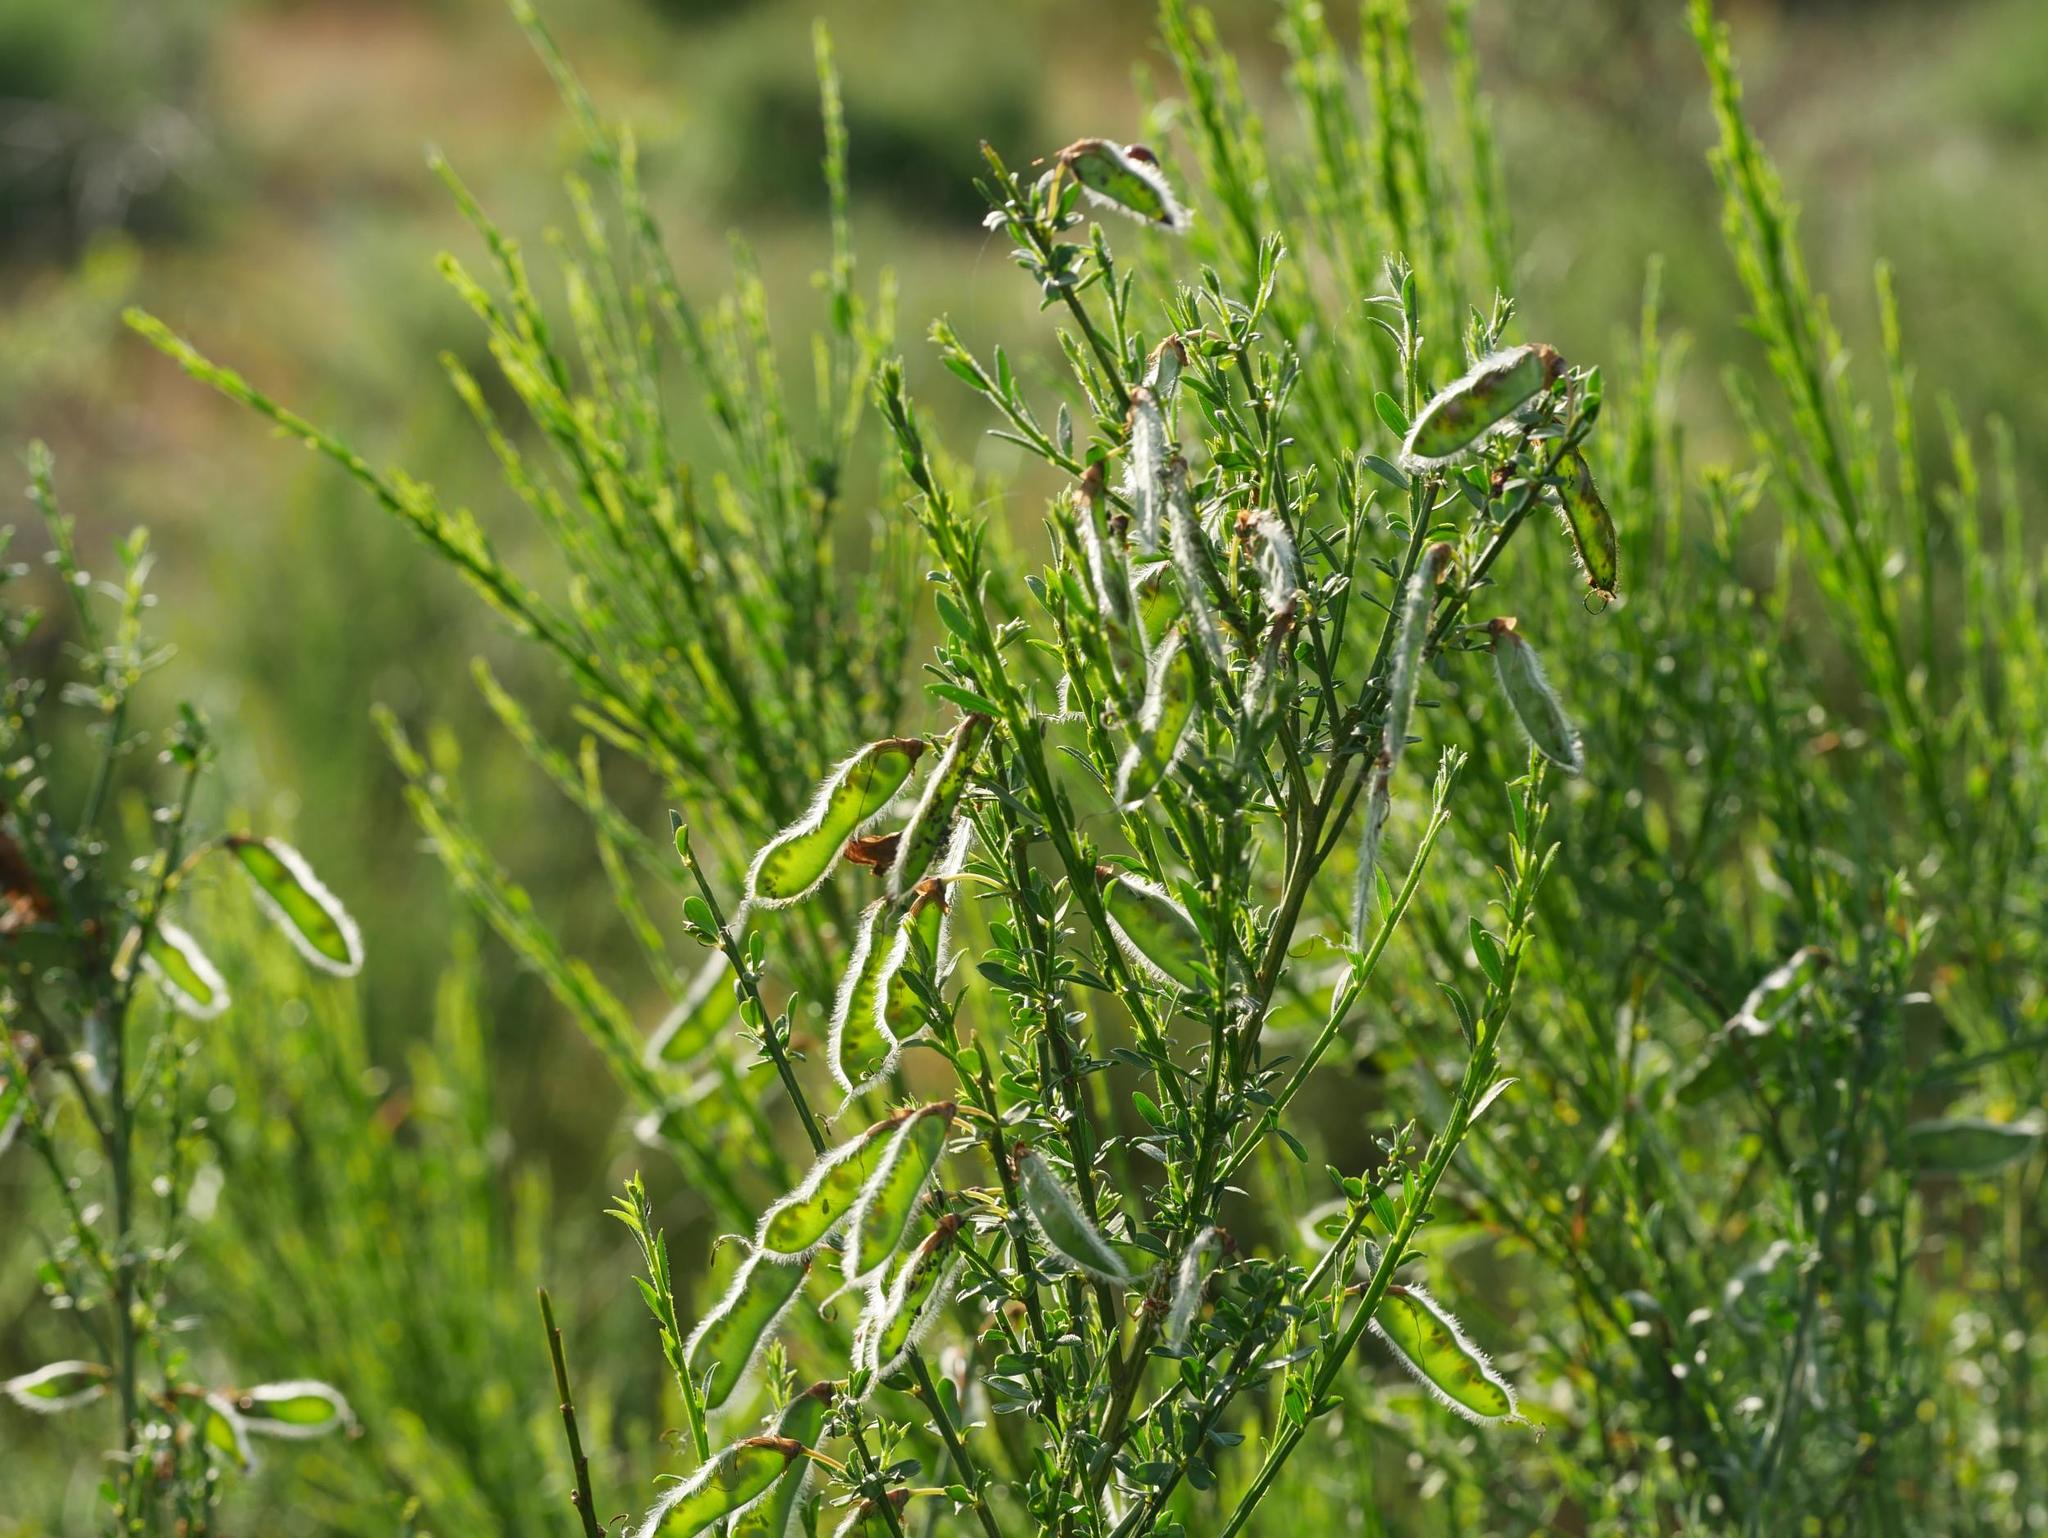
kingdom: Plantae
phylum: Tracheophyta
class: Magnoliopsida
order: Fabales
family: Fabaceae
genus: Cytisus
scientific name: Cytisus scoparius
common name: Scotch broom
